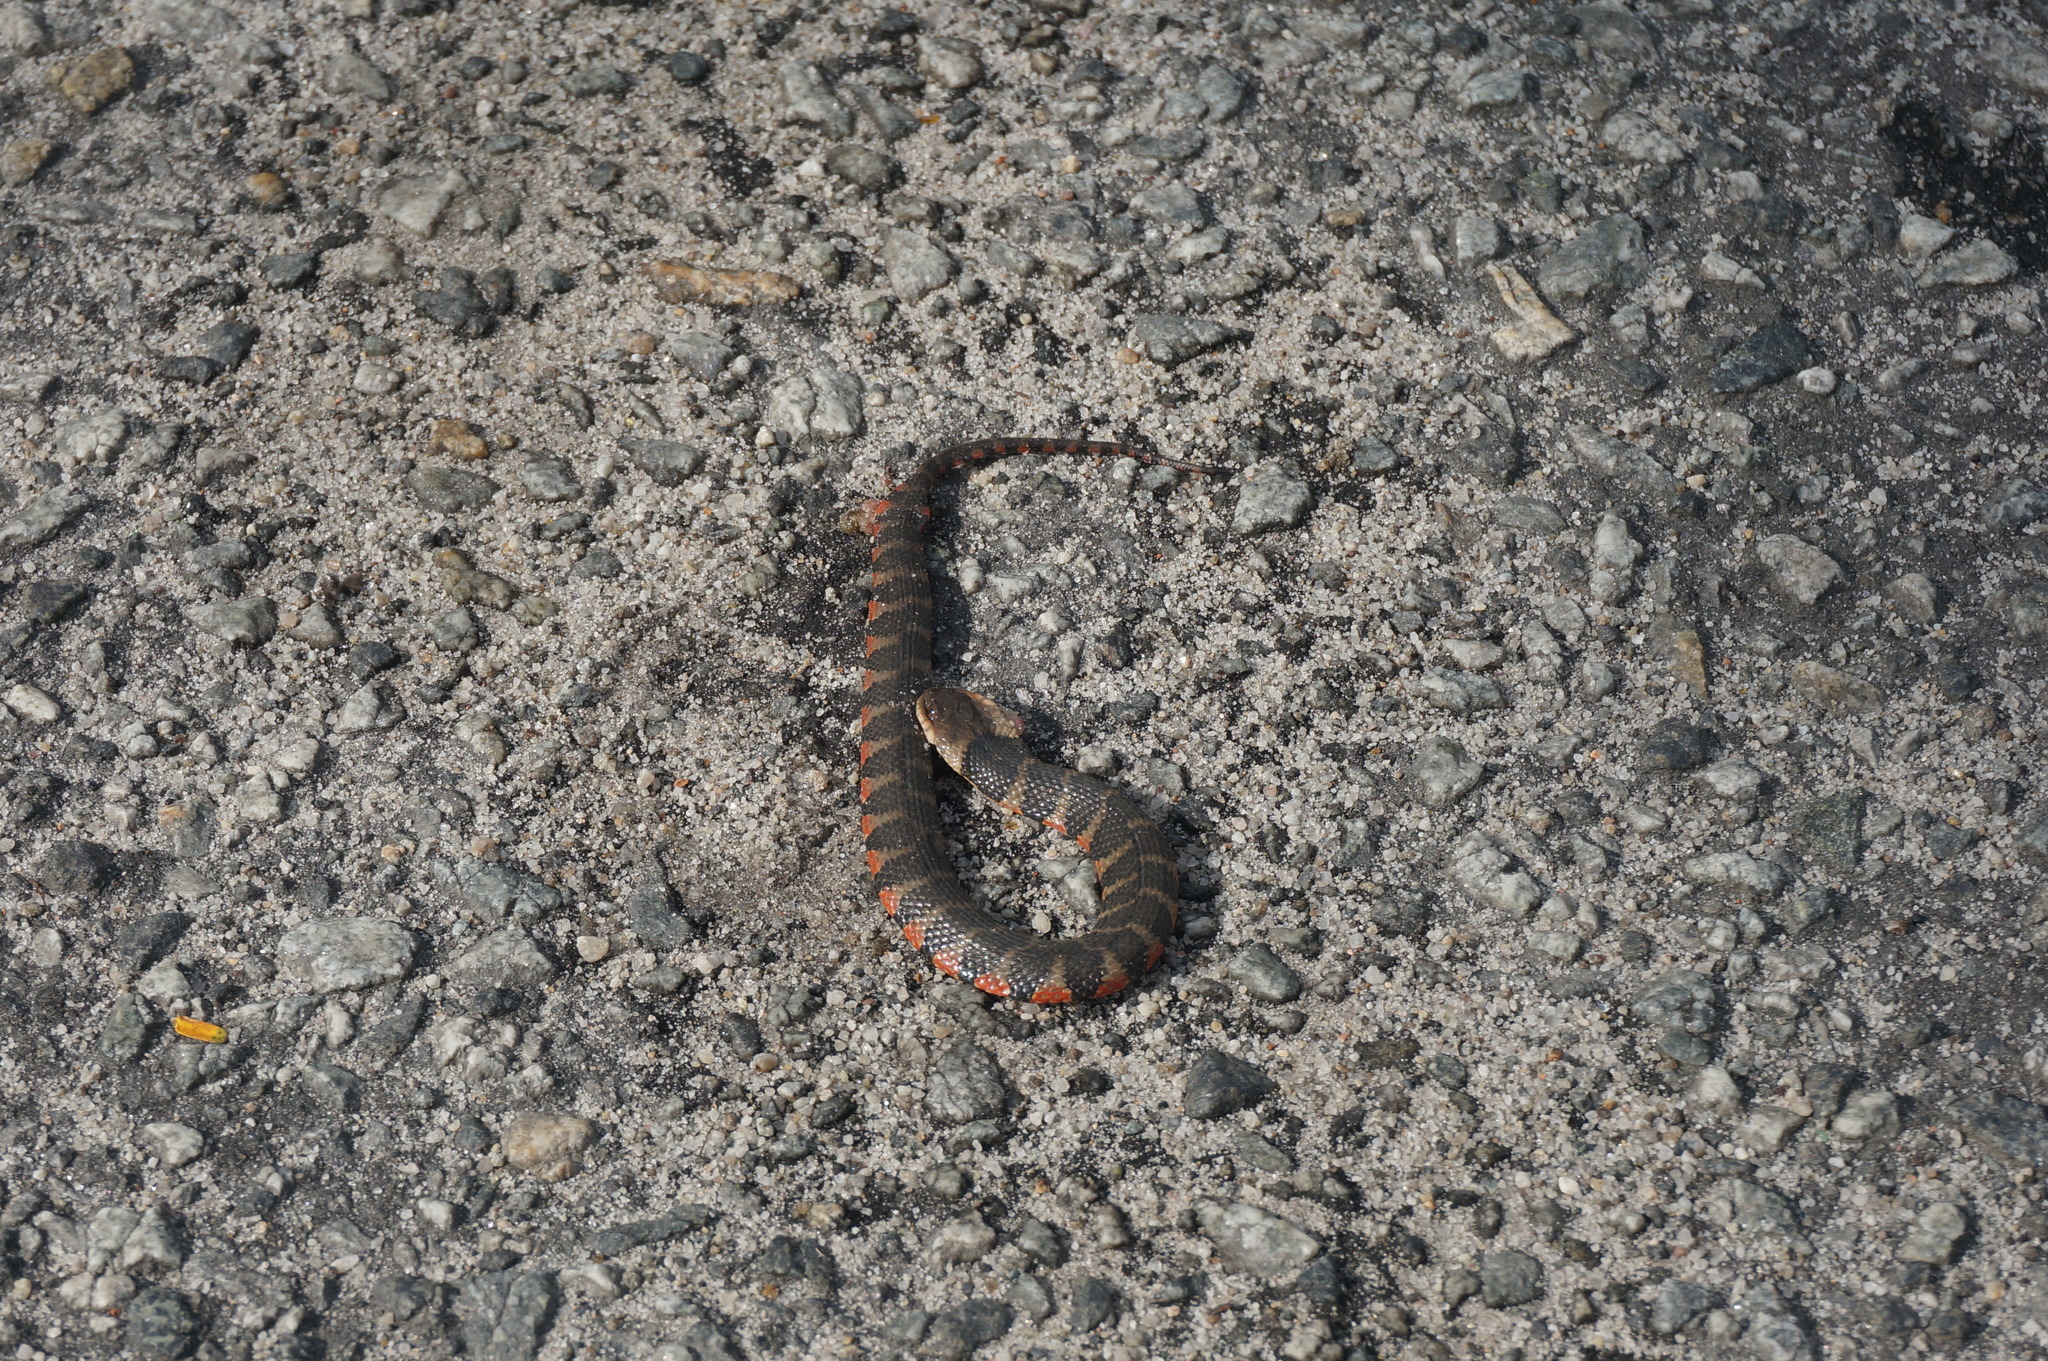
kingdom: Animalia
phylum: Chordata
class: Squamata
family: Colubridae
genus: Helicops
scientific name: Helicops angulatus
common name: Mountain keelback
